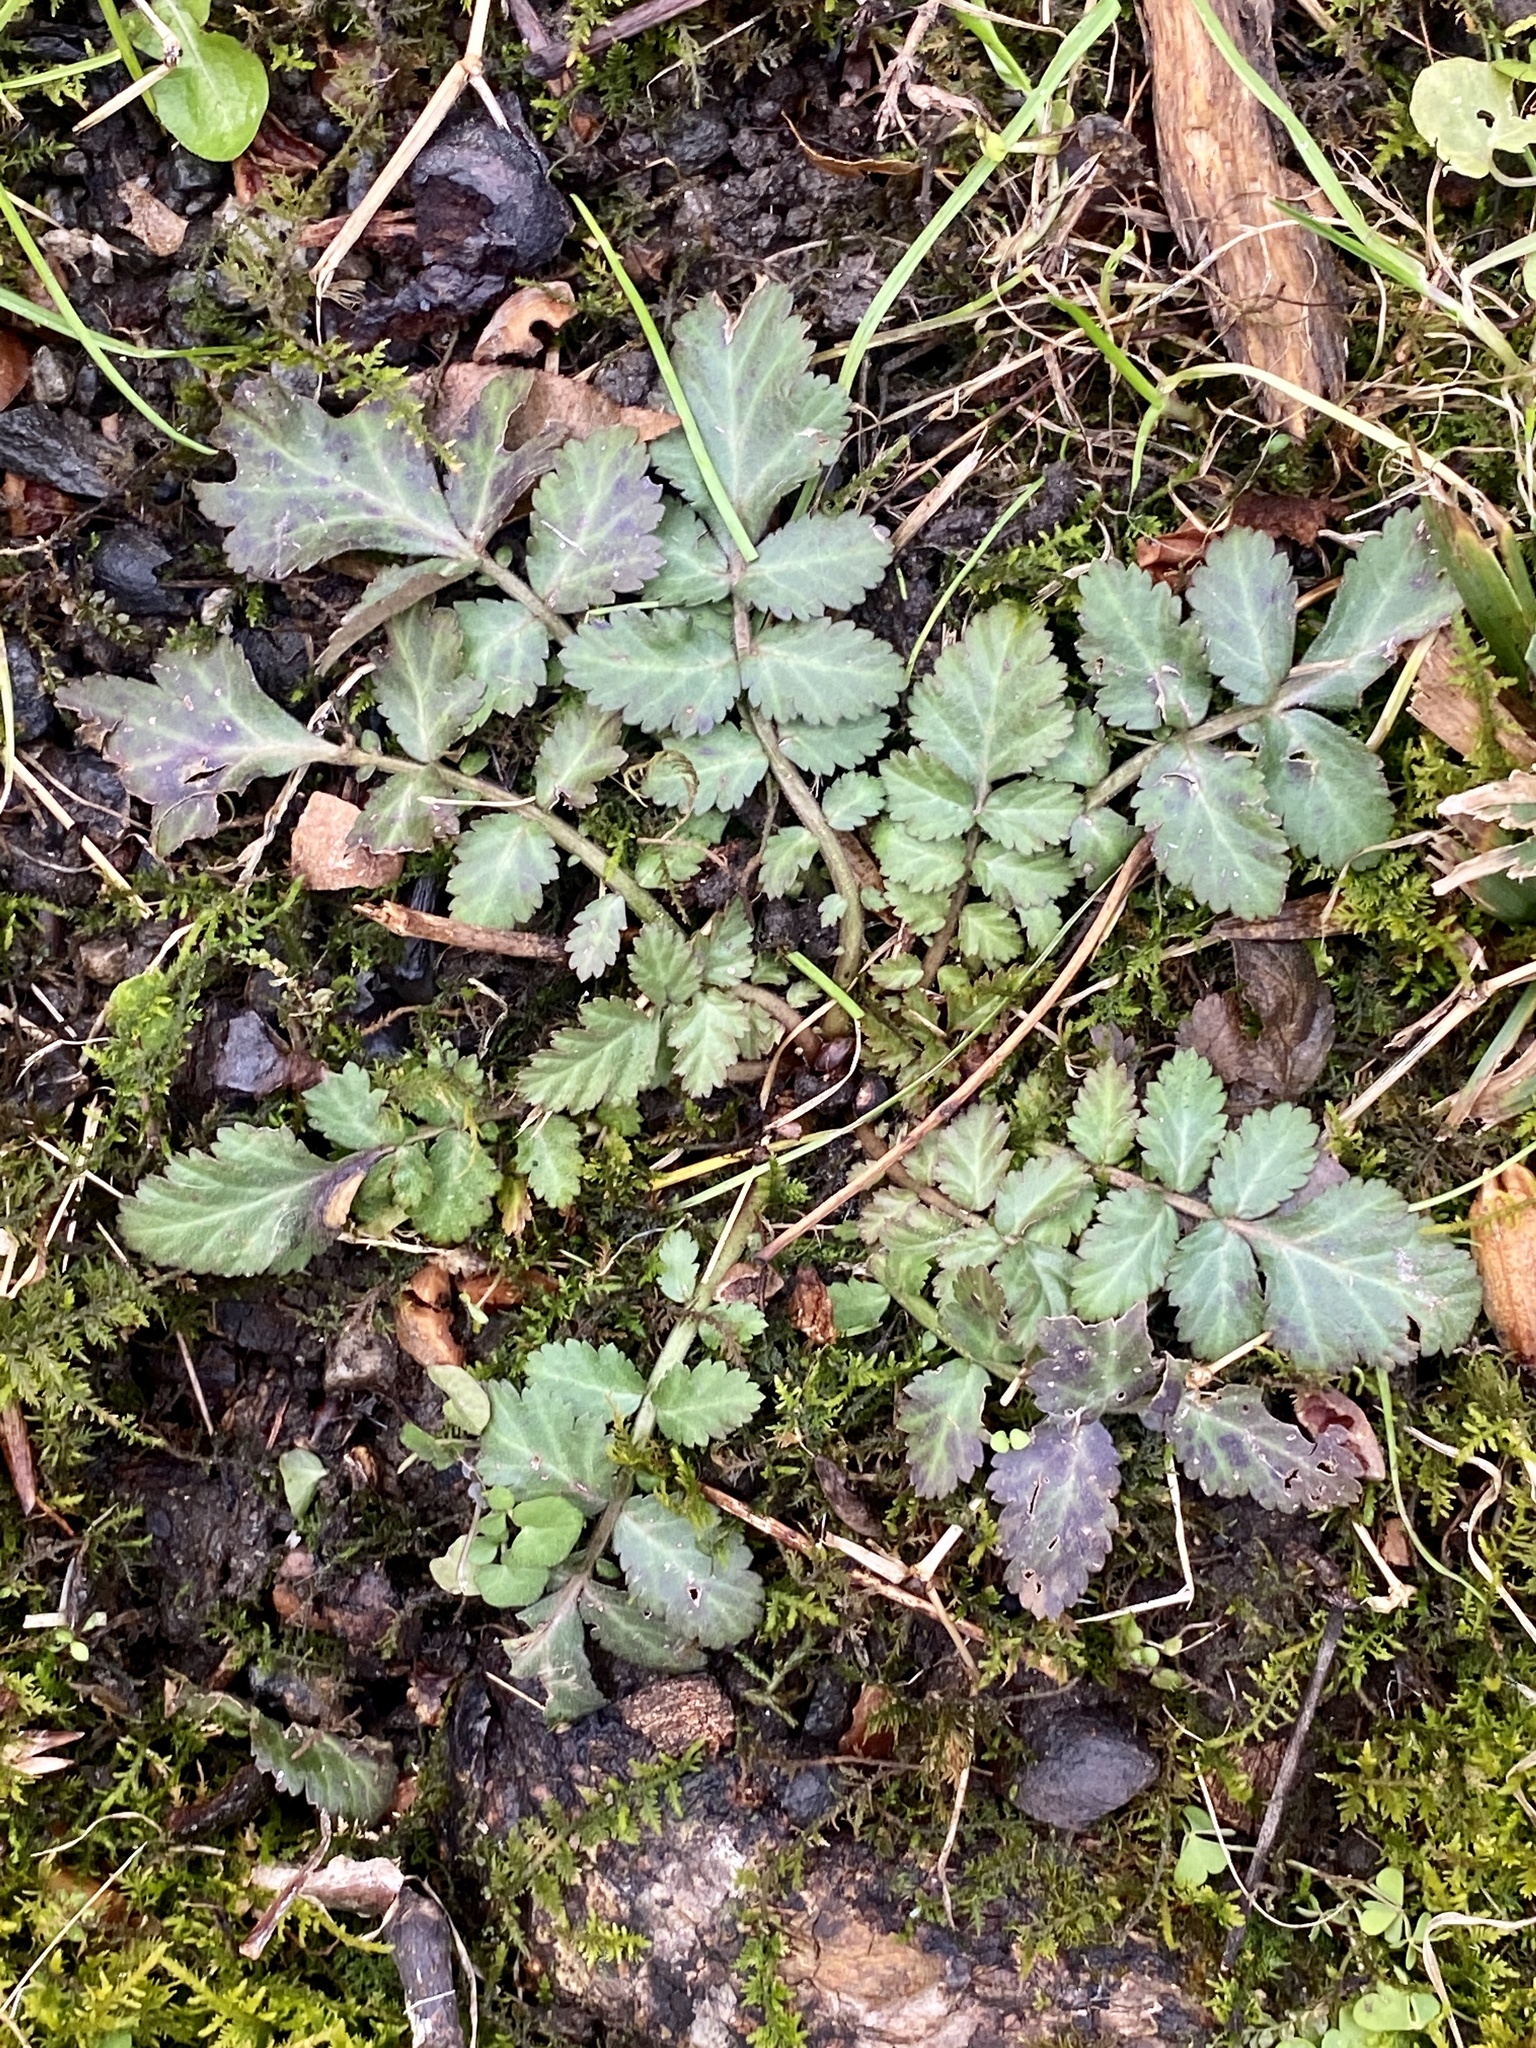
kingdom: Plantae
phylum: Tracheophyta
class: Magnoliopsida
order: Rosales
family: Rosaceae
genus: Geum
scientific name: Geum canadense
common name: White avens
